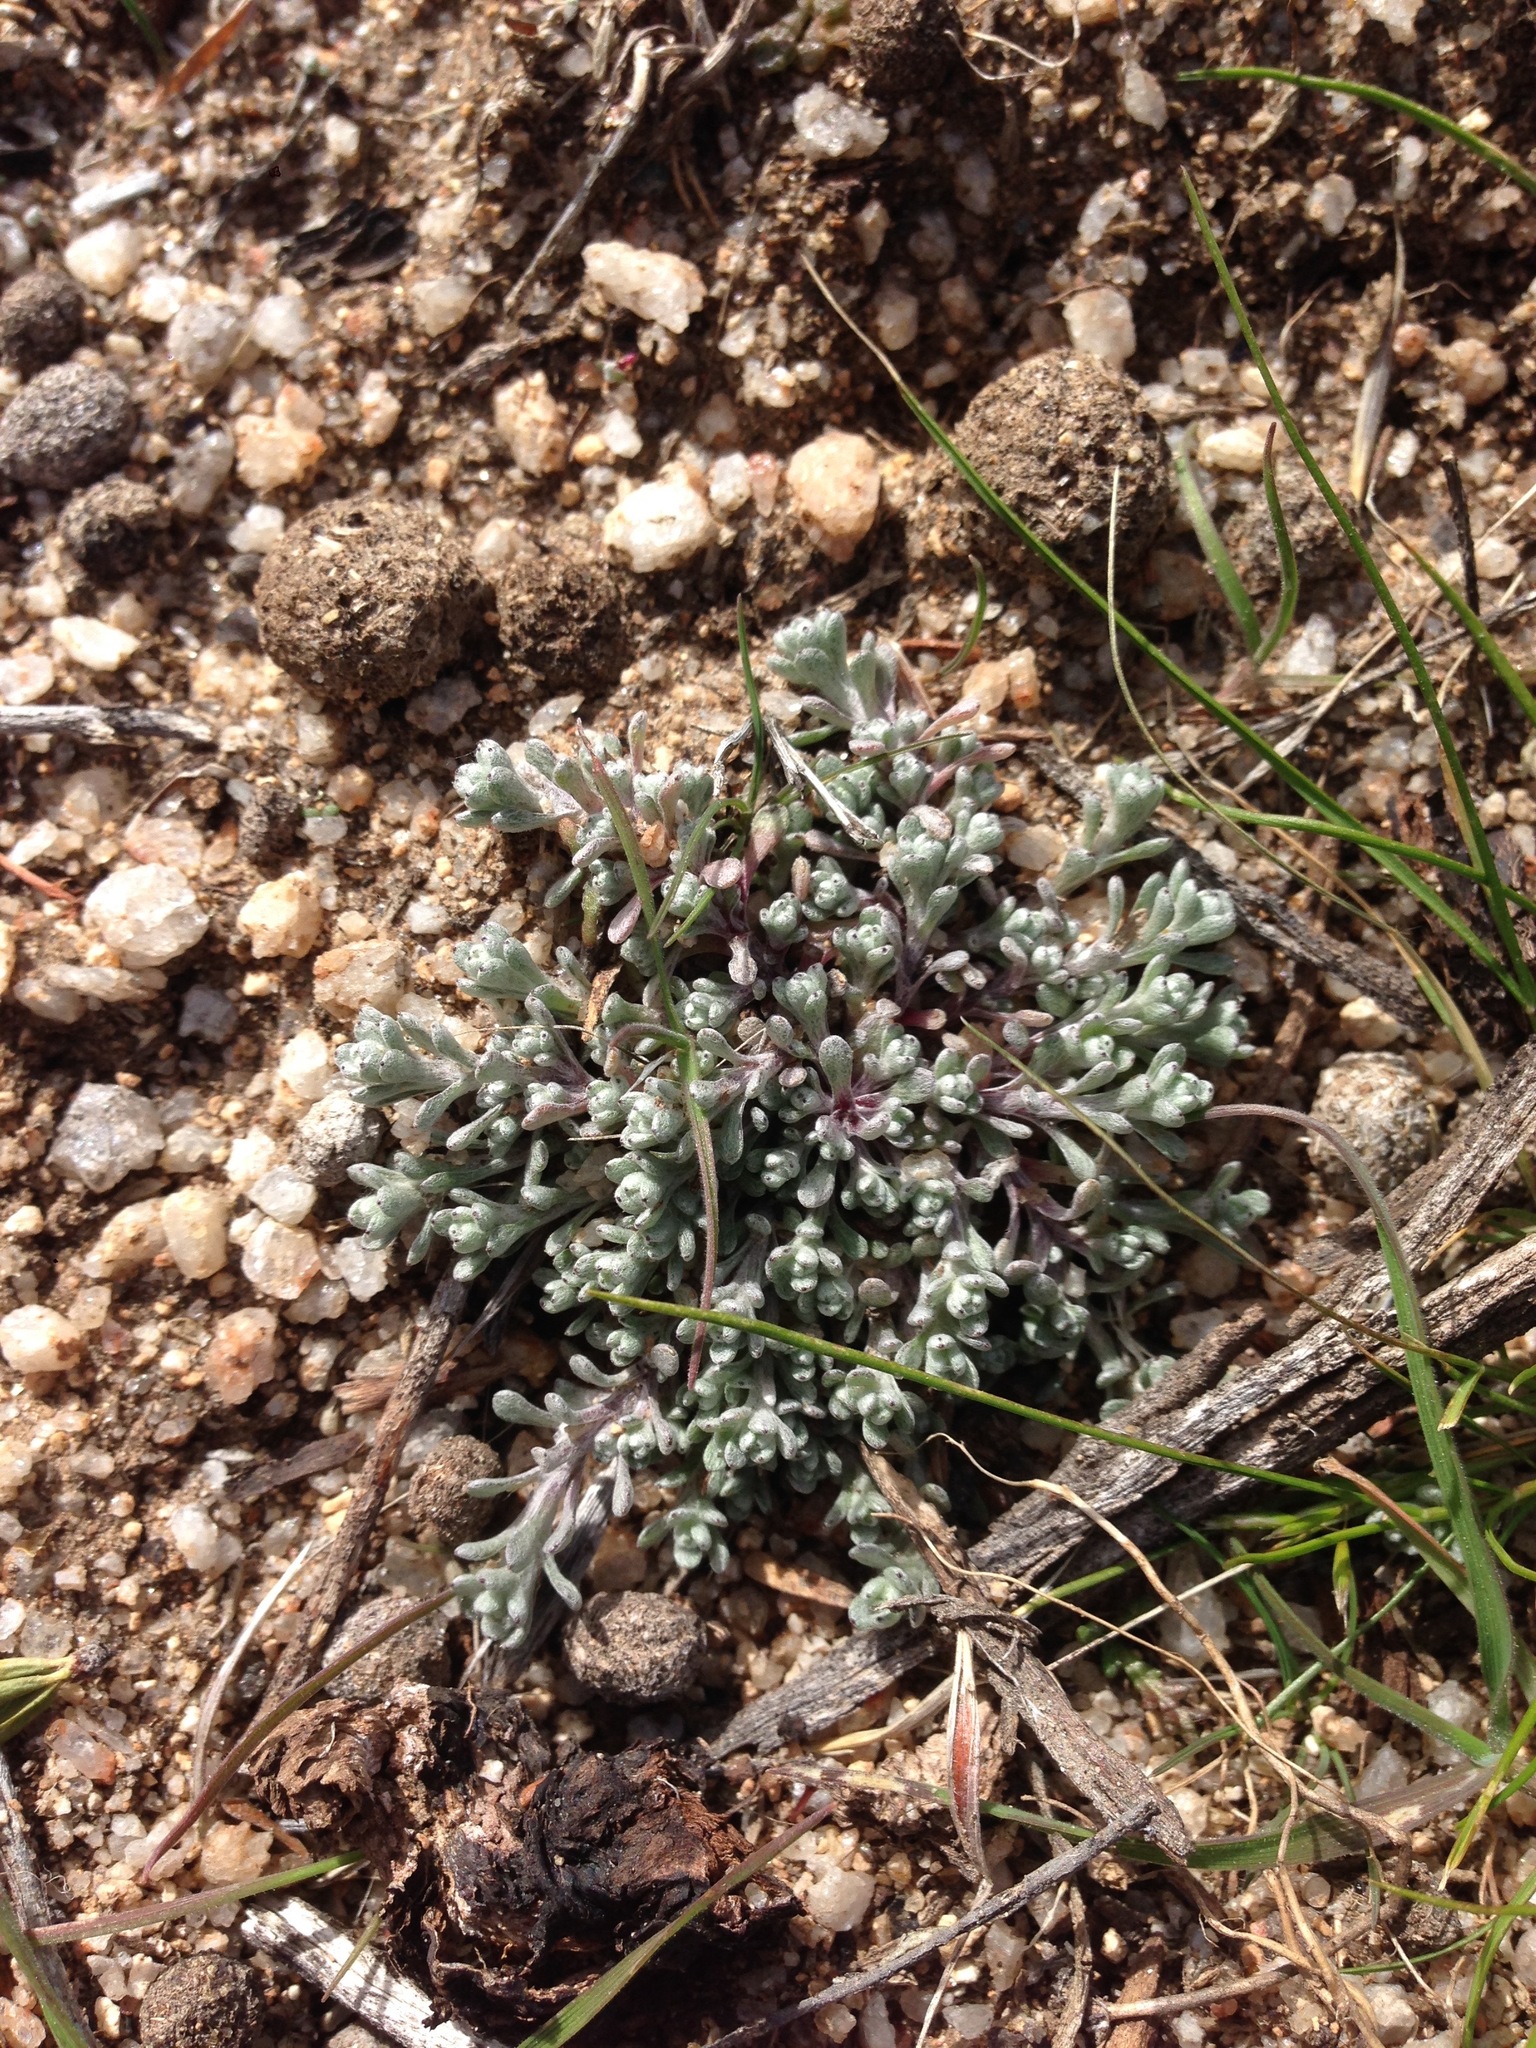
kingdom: Plantae
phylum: Tracheophyta
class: Magnoliopsida
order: Asterales
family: Asteraceae
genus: Logfia
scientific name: Logfia depressa
